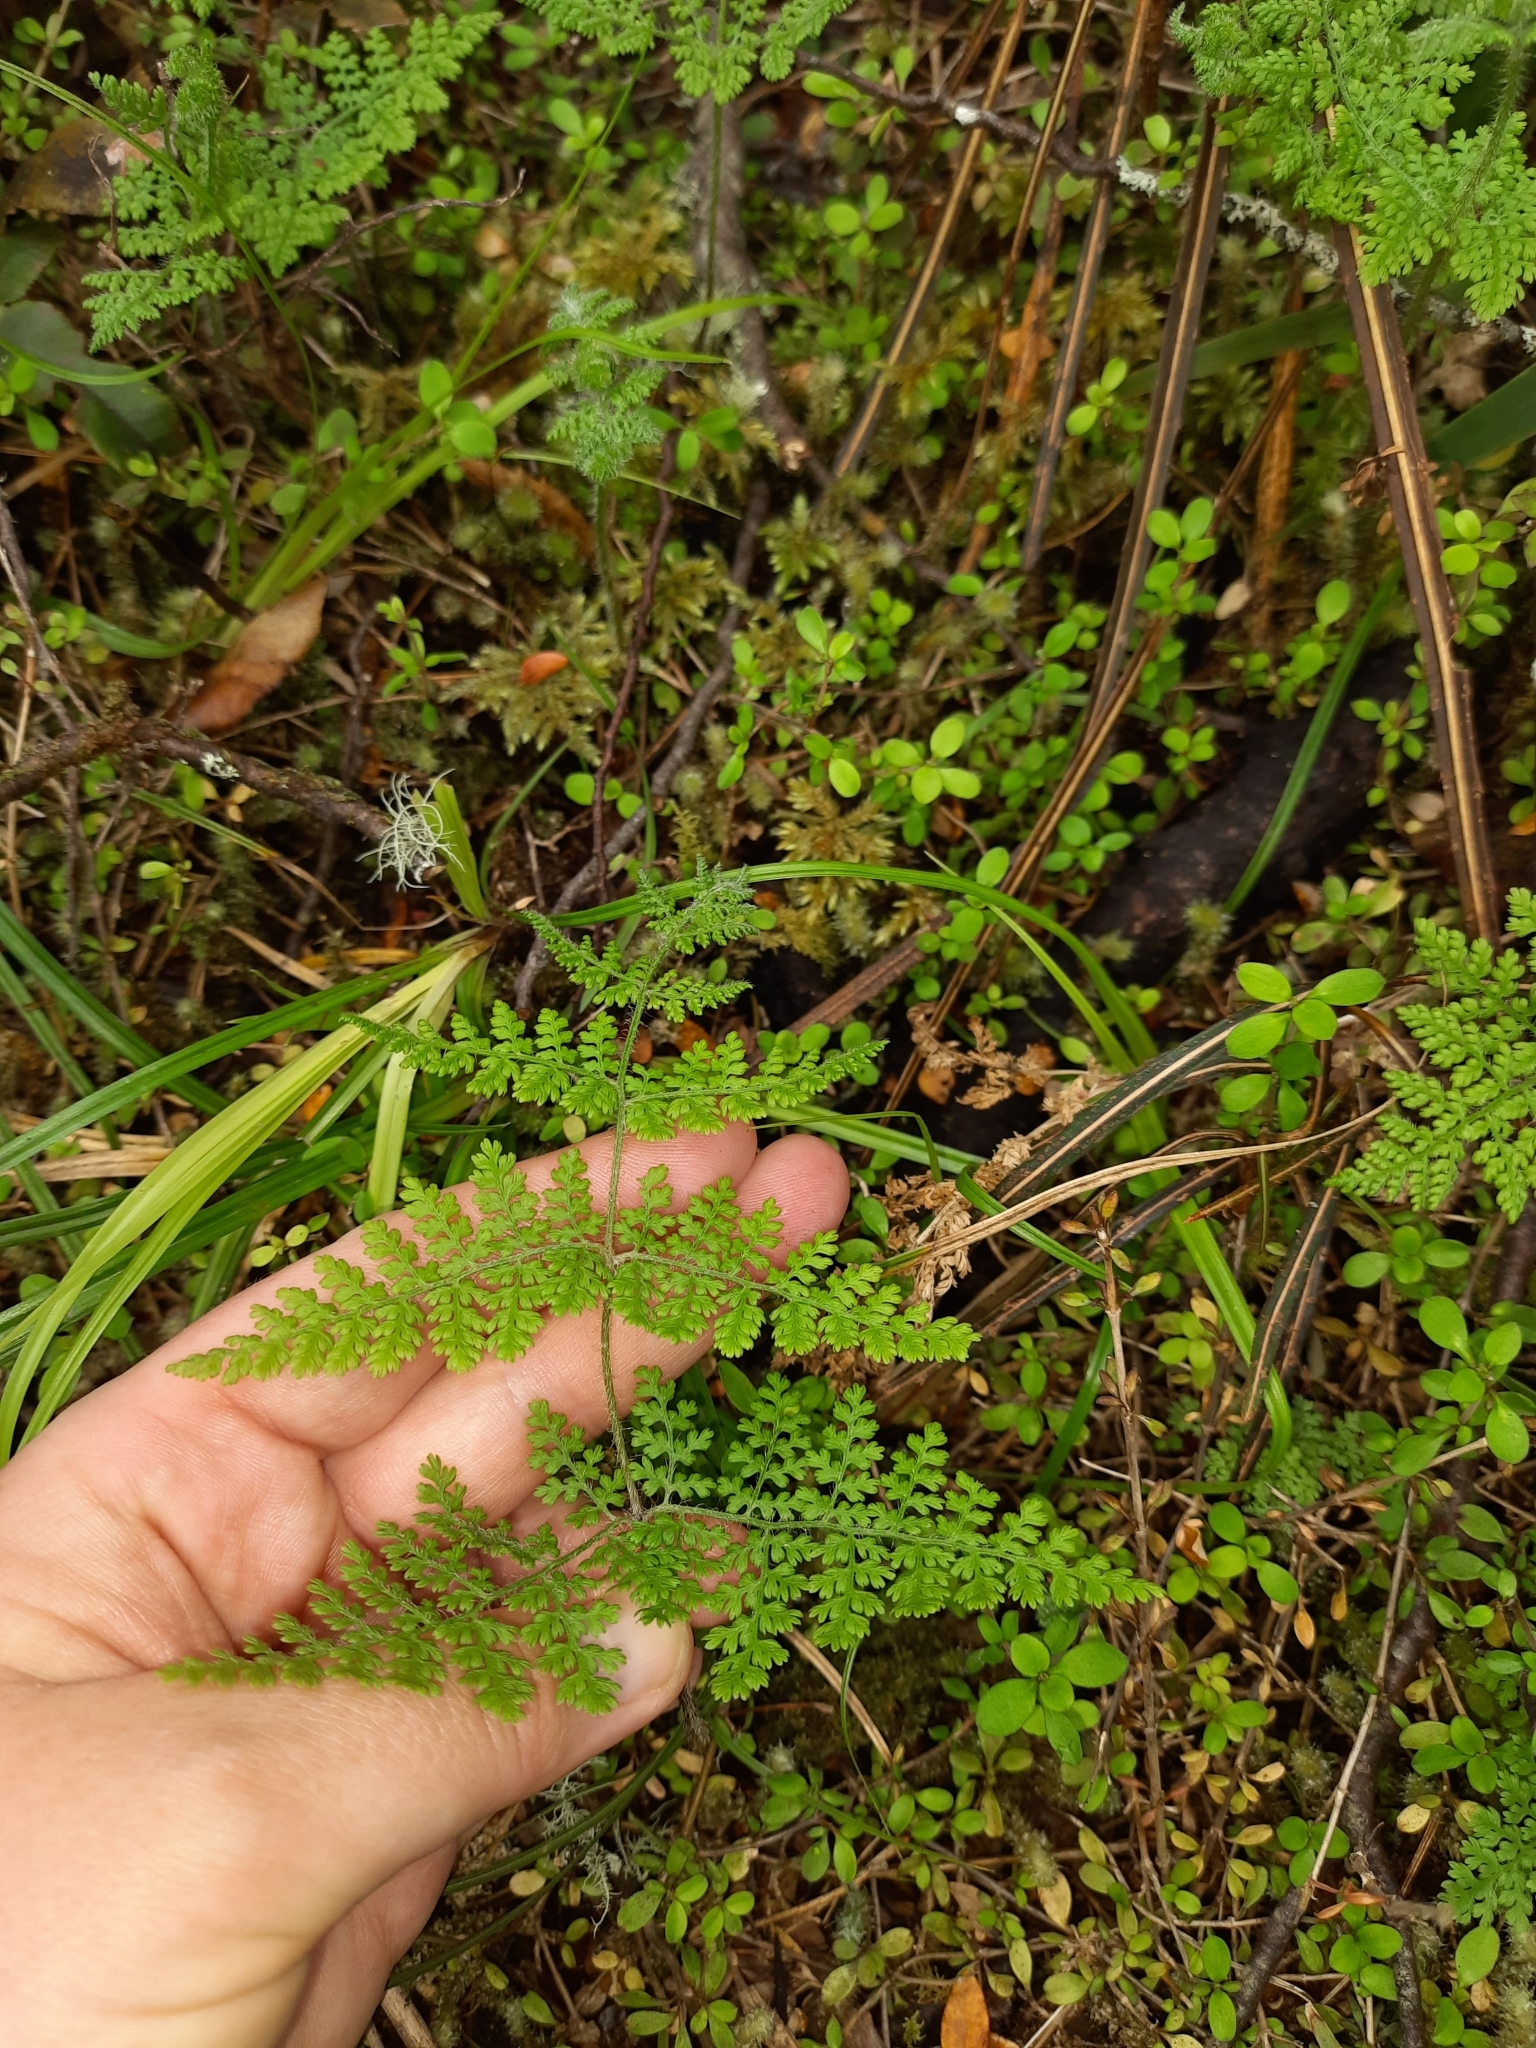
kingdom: Plantae
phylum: Tracheophyta
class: Polypodiopsida
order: Polypodiales
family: Dennstaedtiaceae
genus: Hypolepis
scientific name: Hypolepis millefolium
